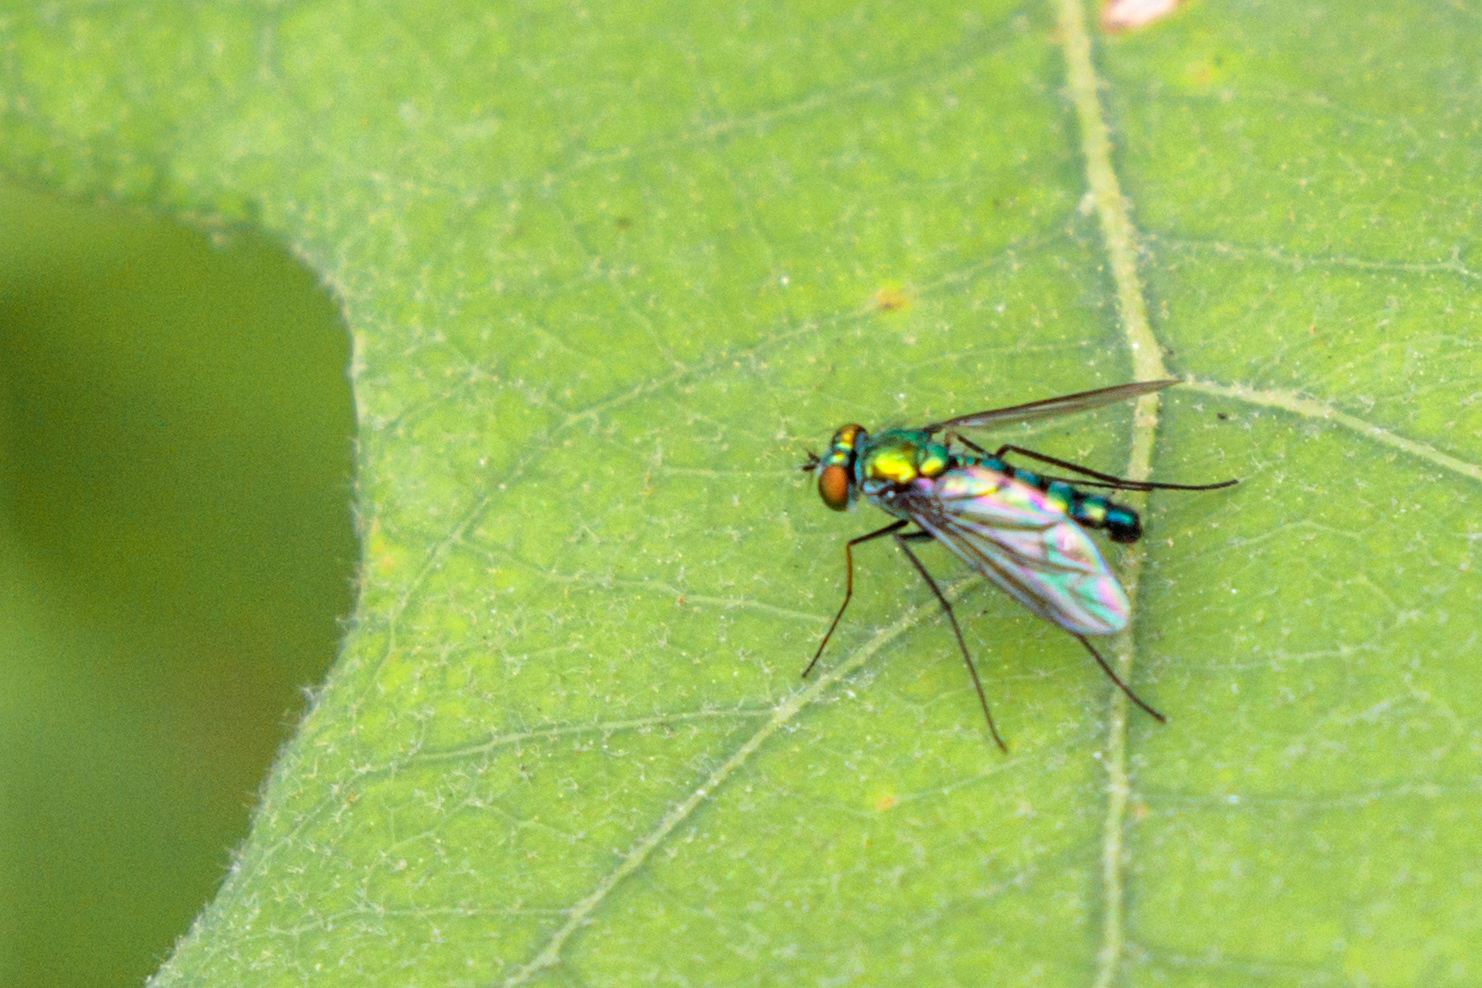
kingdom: Animalia
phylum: Arthropoda
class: Insecta
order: Diptera
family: Dolichopodidae
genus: Condylostylus
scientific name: Condylostylus longicornis
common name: Long-legged fly
